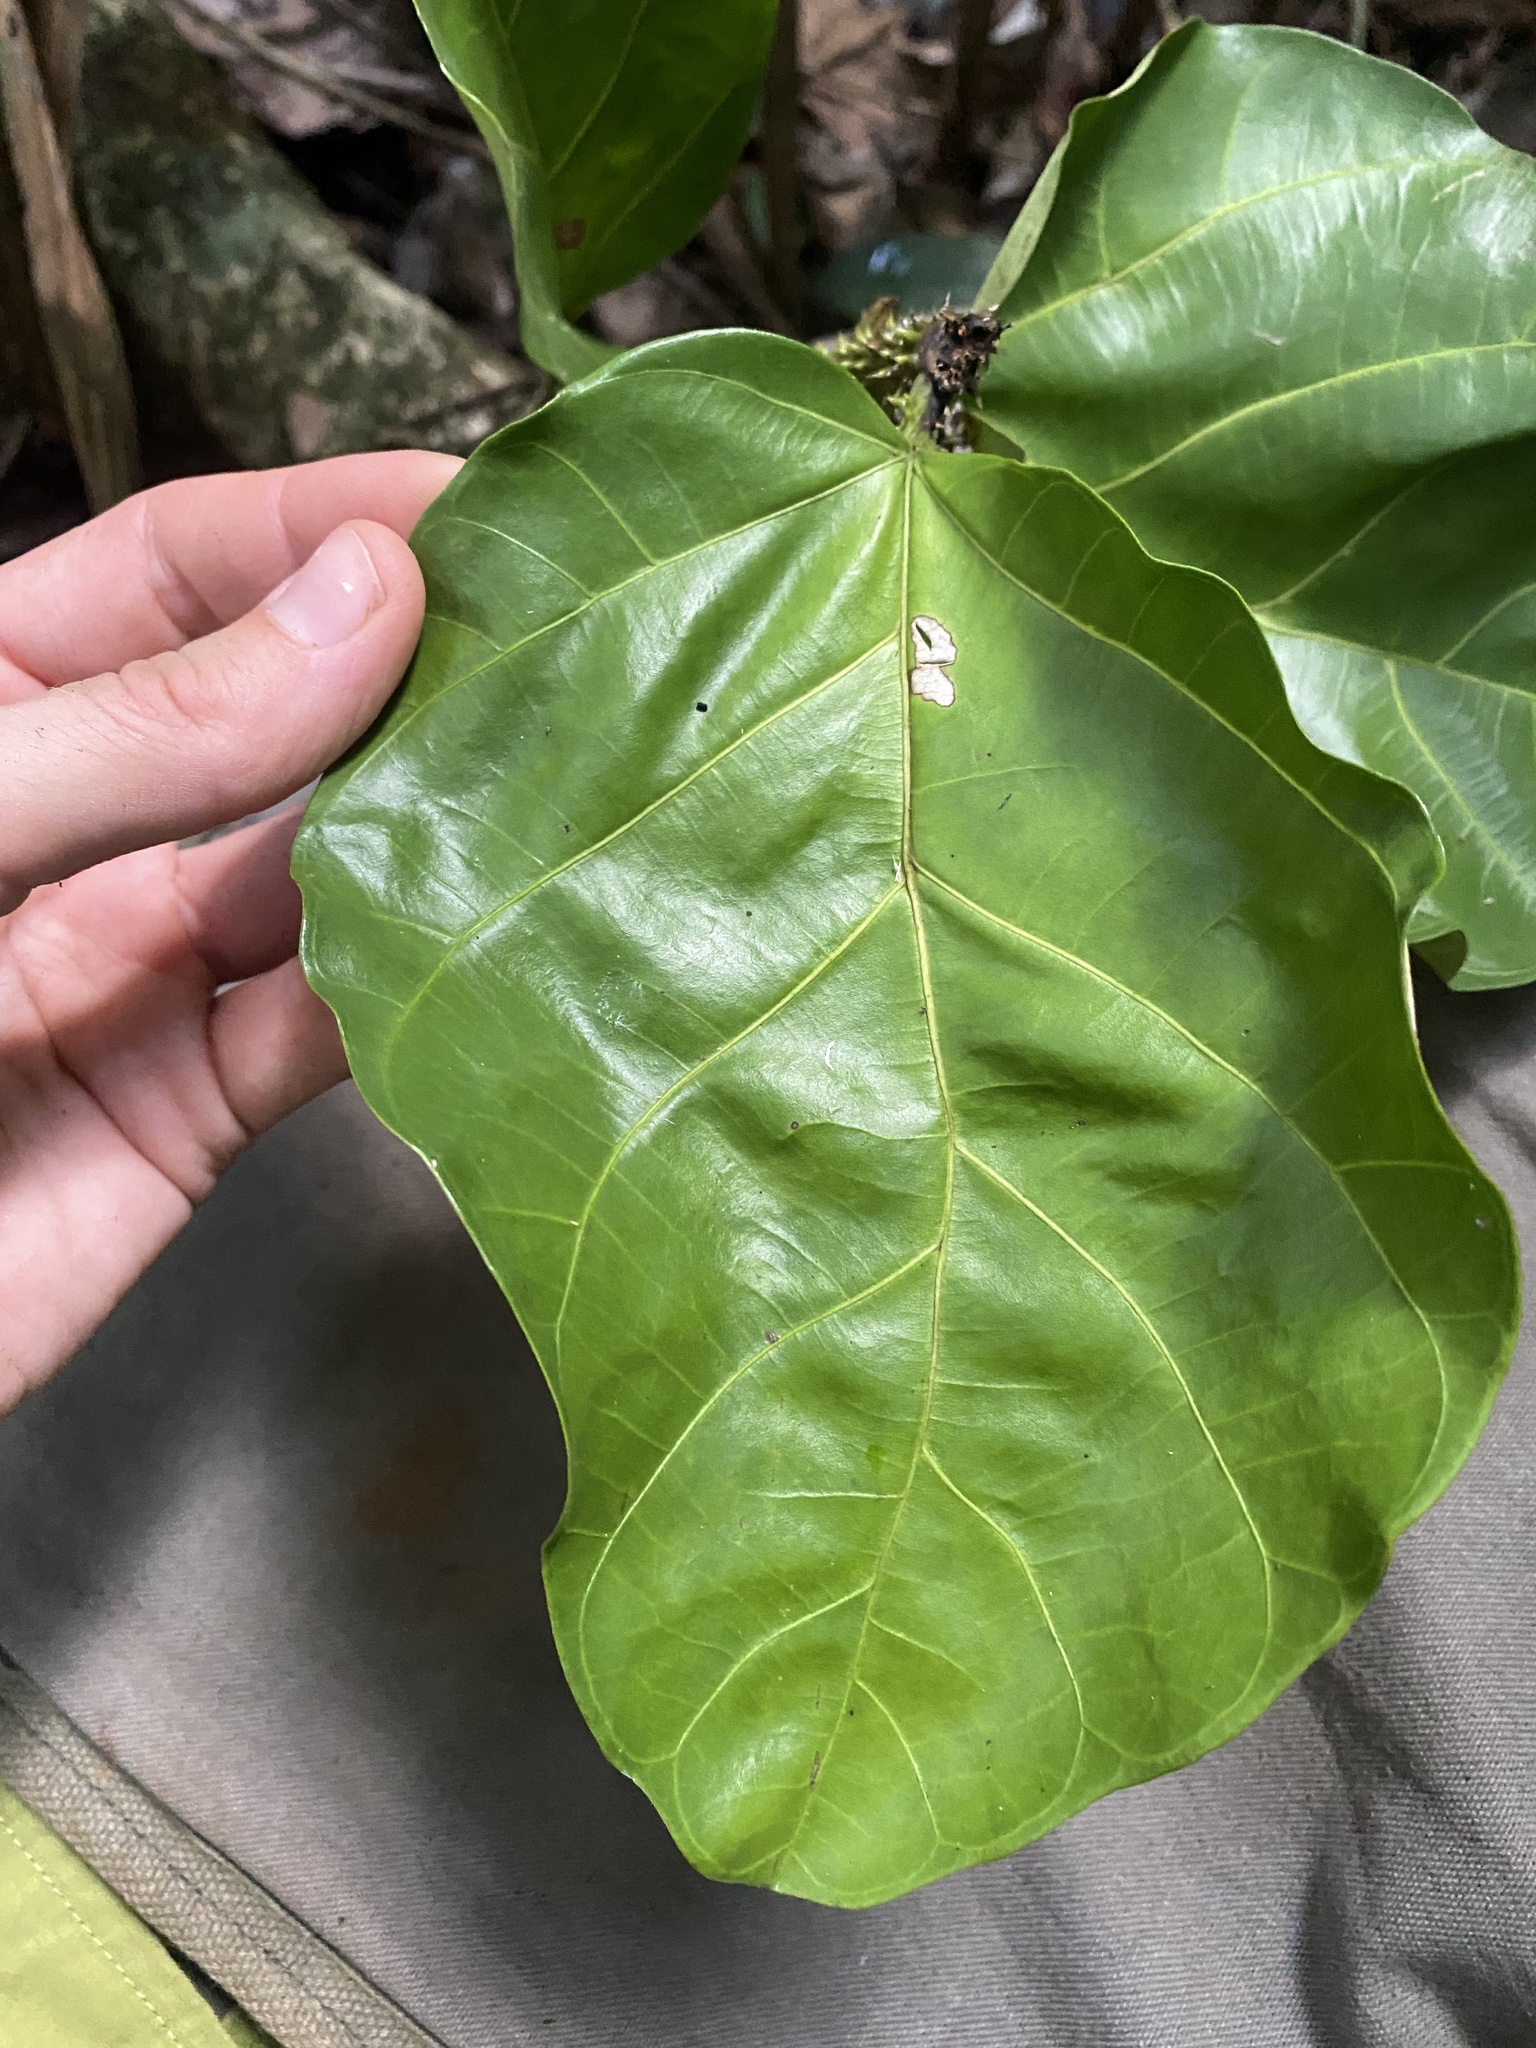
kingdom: Plantae
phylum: Tracheophyta
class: Magnoliopsida
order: Rosales
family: Moraceae
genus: Poulsenia
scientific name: Poulsenia armata
